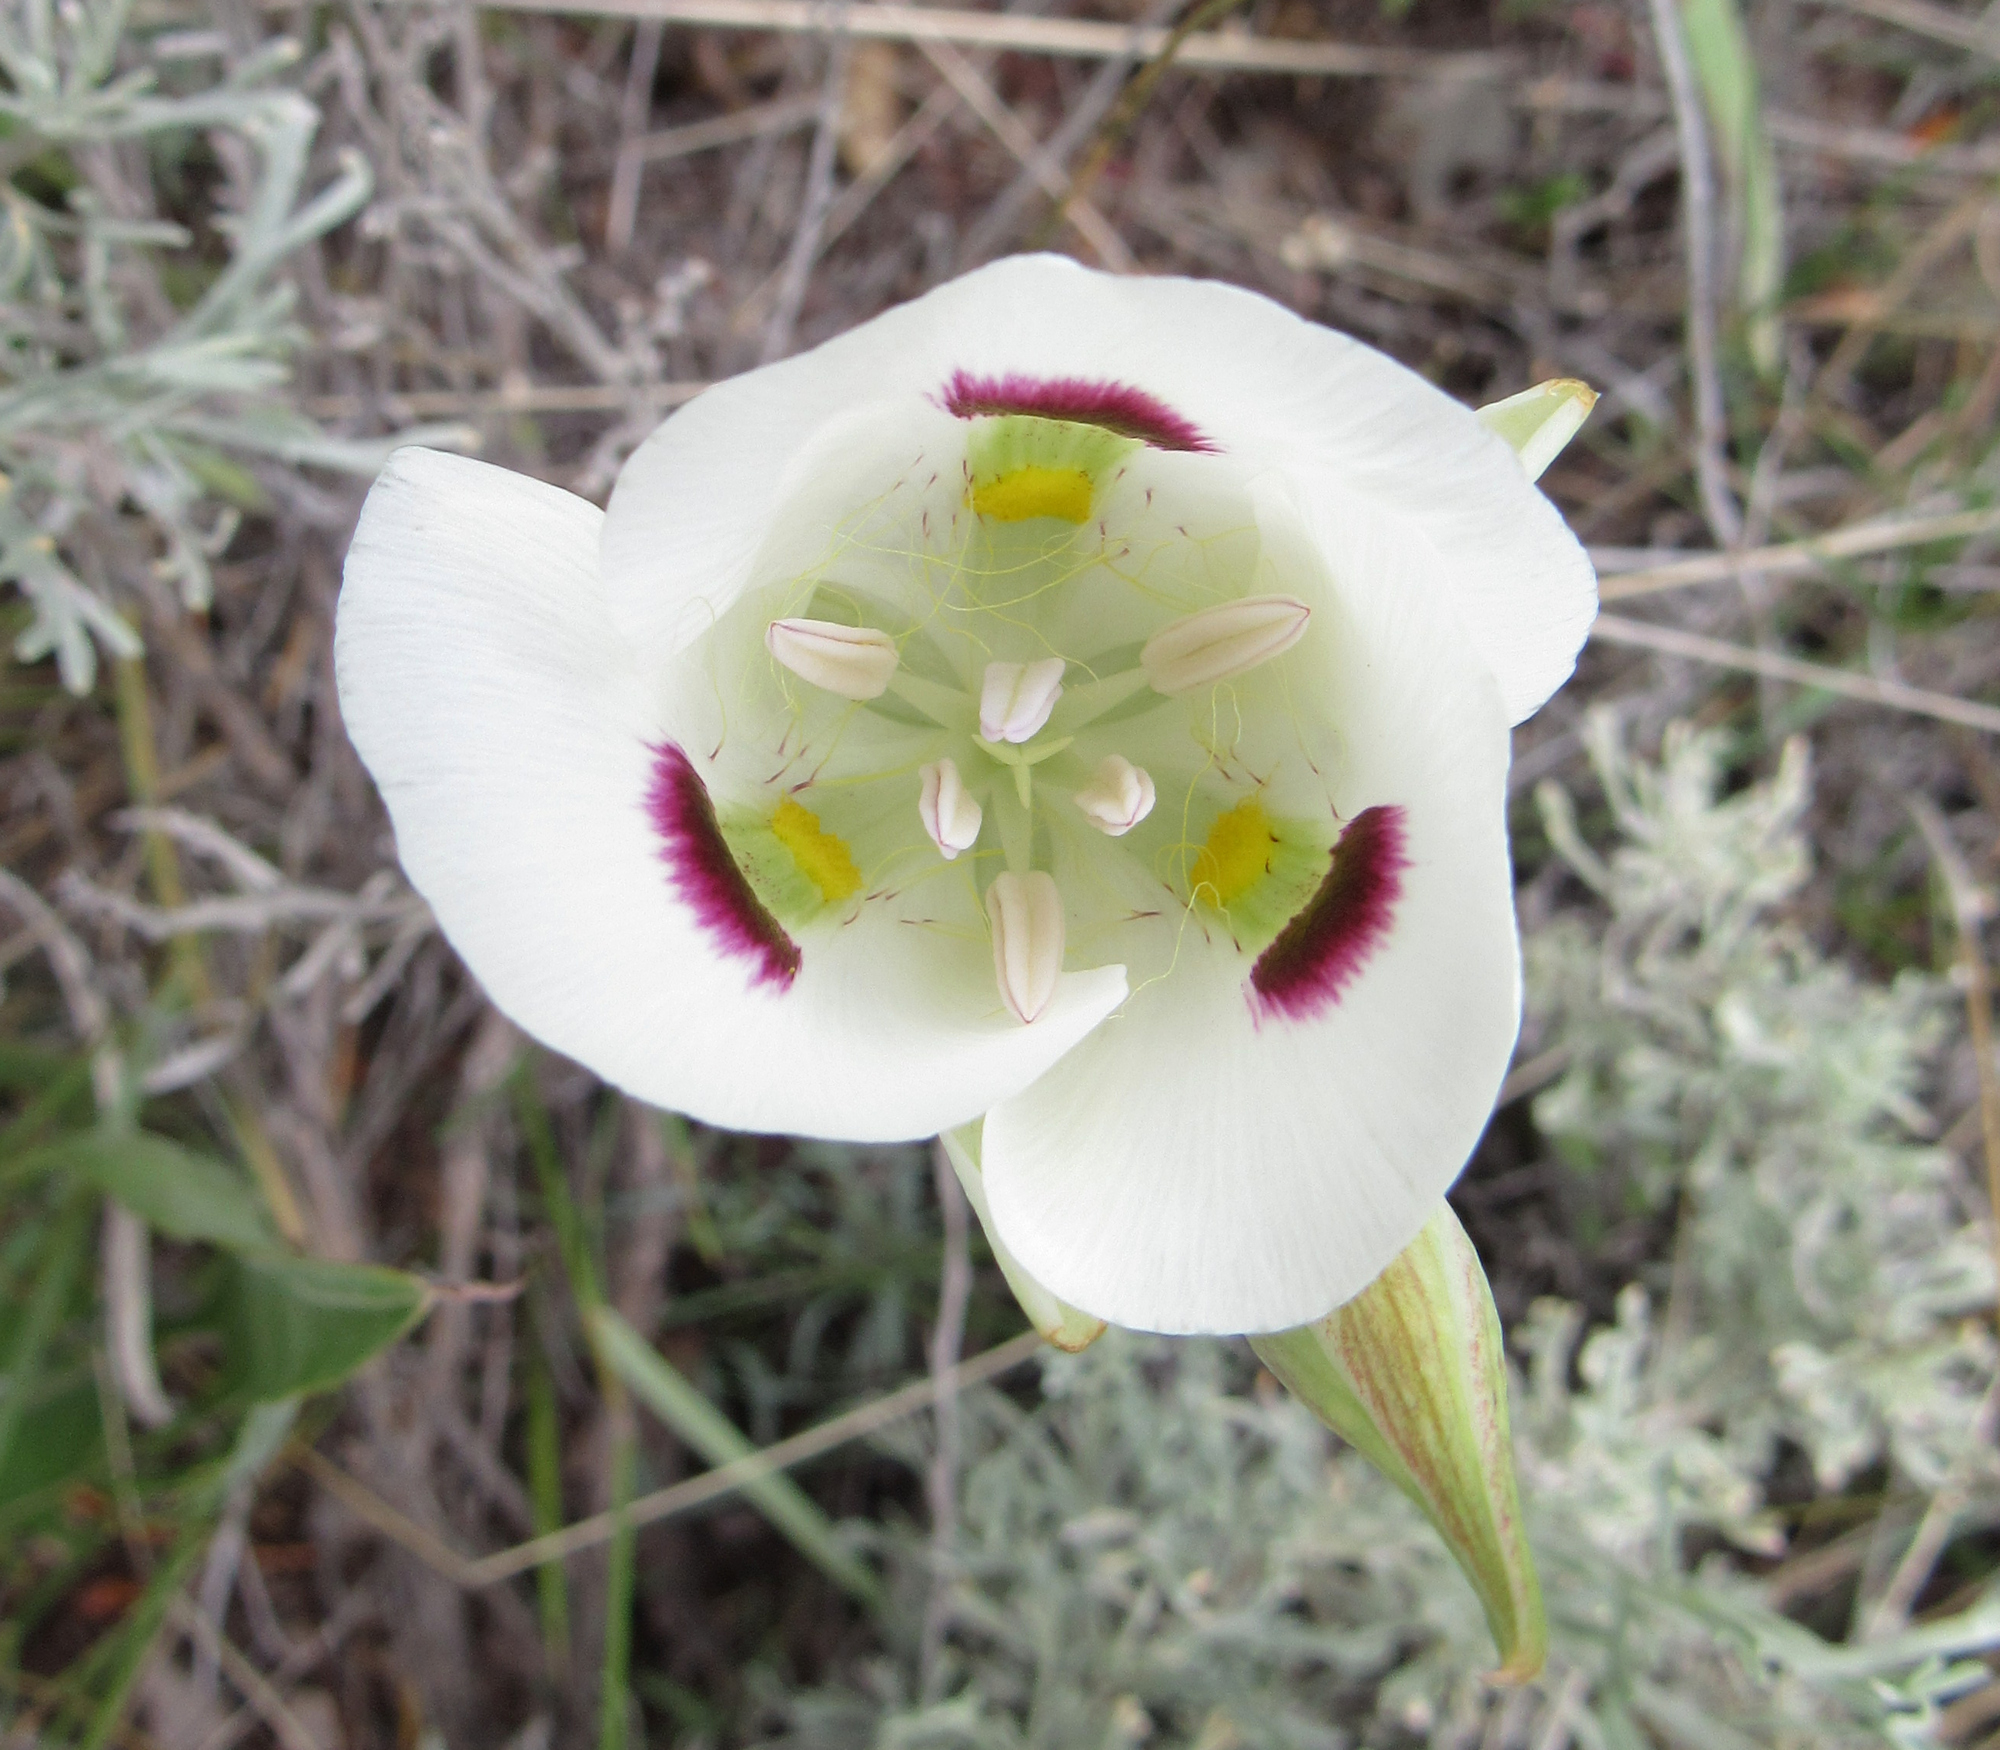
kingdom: Plantae
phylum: Tracheophyta
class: Liliopsida
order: Liliales
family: Liliaceae
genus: Calochortus
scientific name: Calochortus eurycarpus
